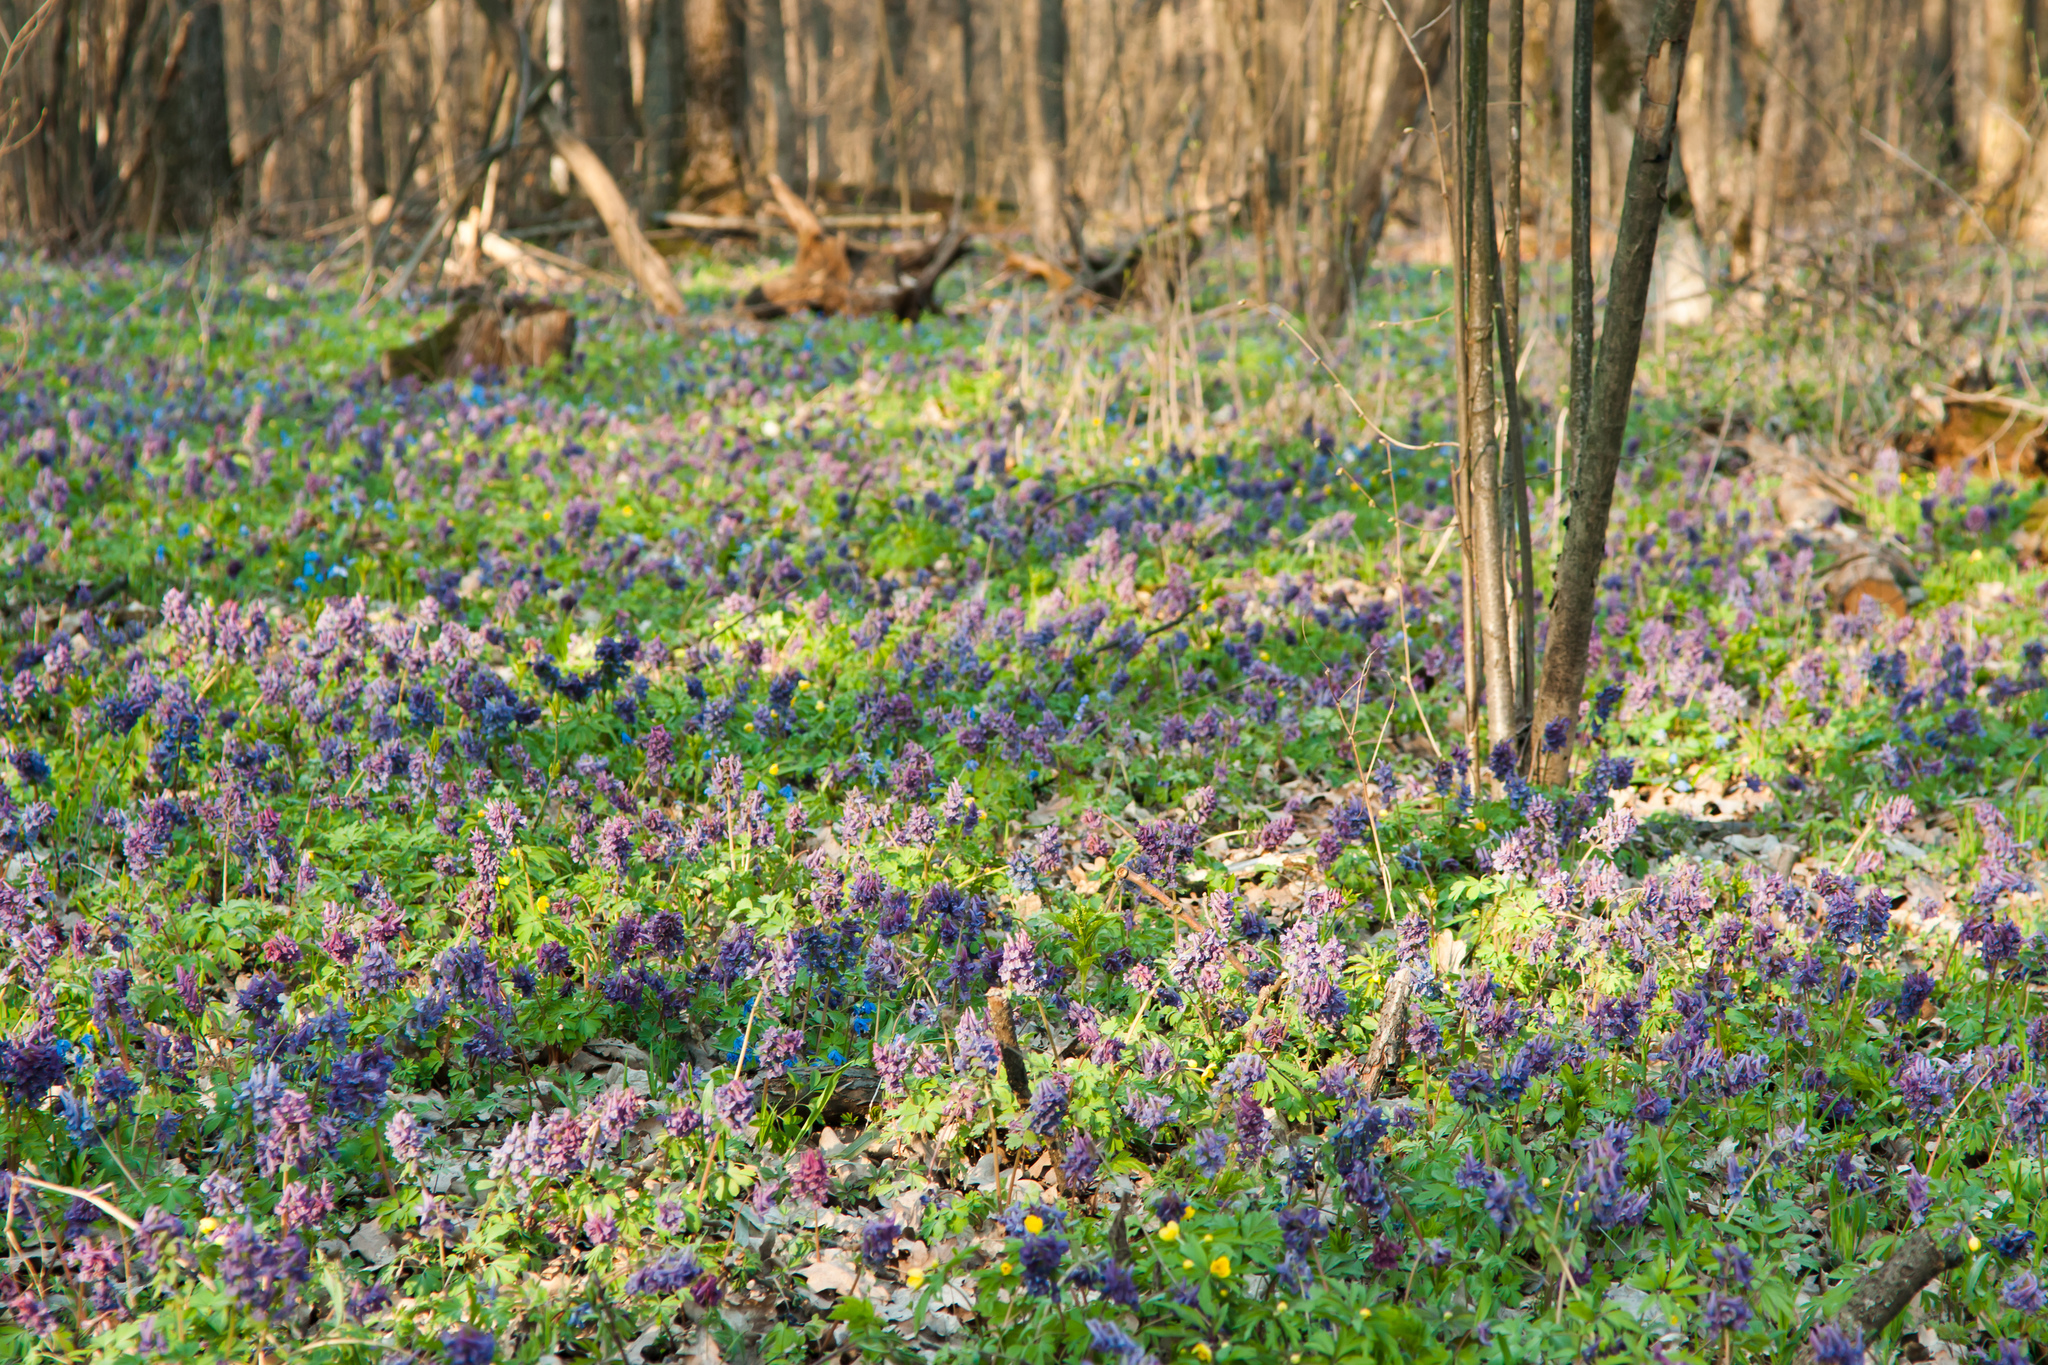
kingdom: Plantae
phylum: Tracheophyta
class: Magnoliopsida
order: Ranunculales
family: Papaveraceae
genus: Corydalis
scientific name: Corydalis solida
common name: Bird-in-a-bush
